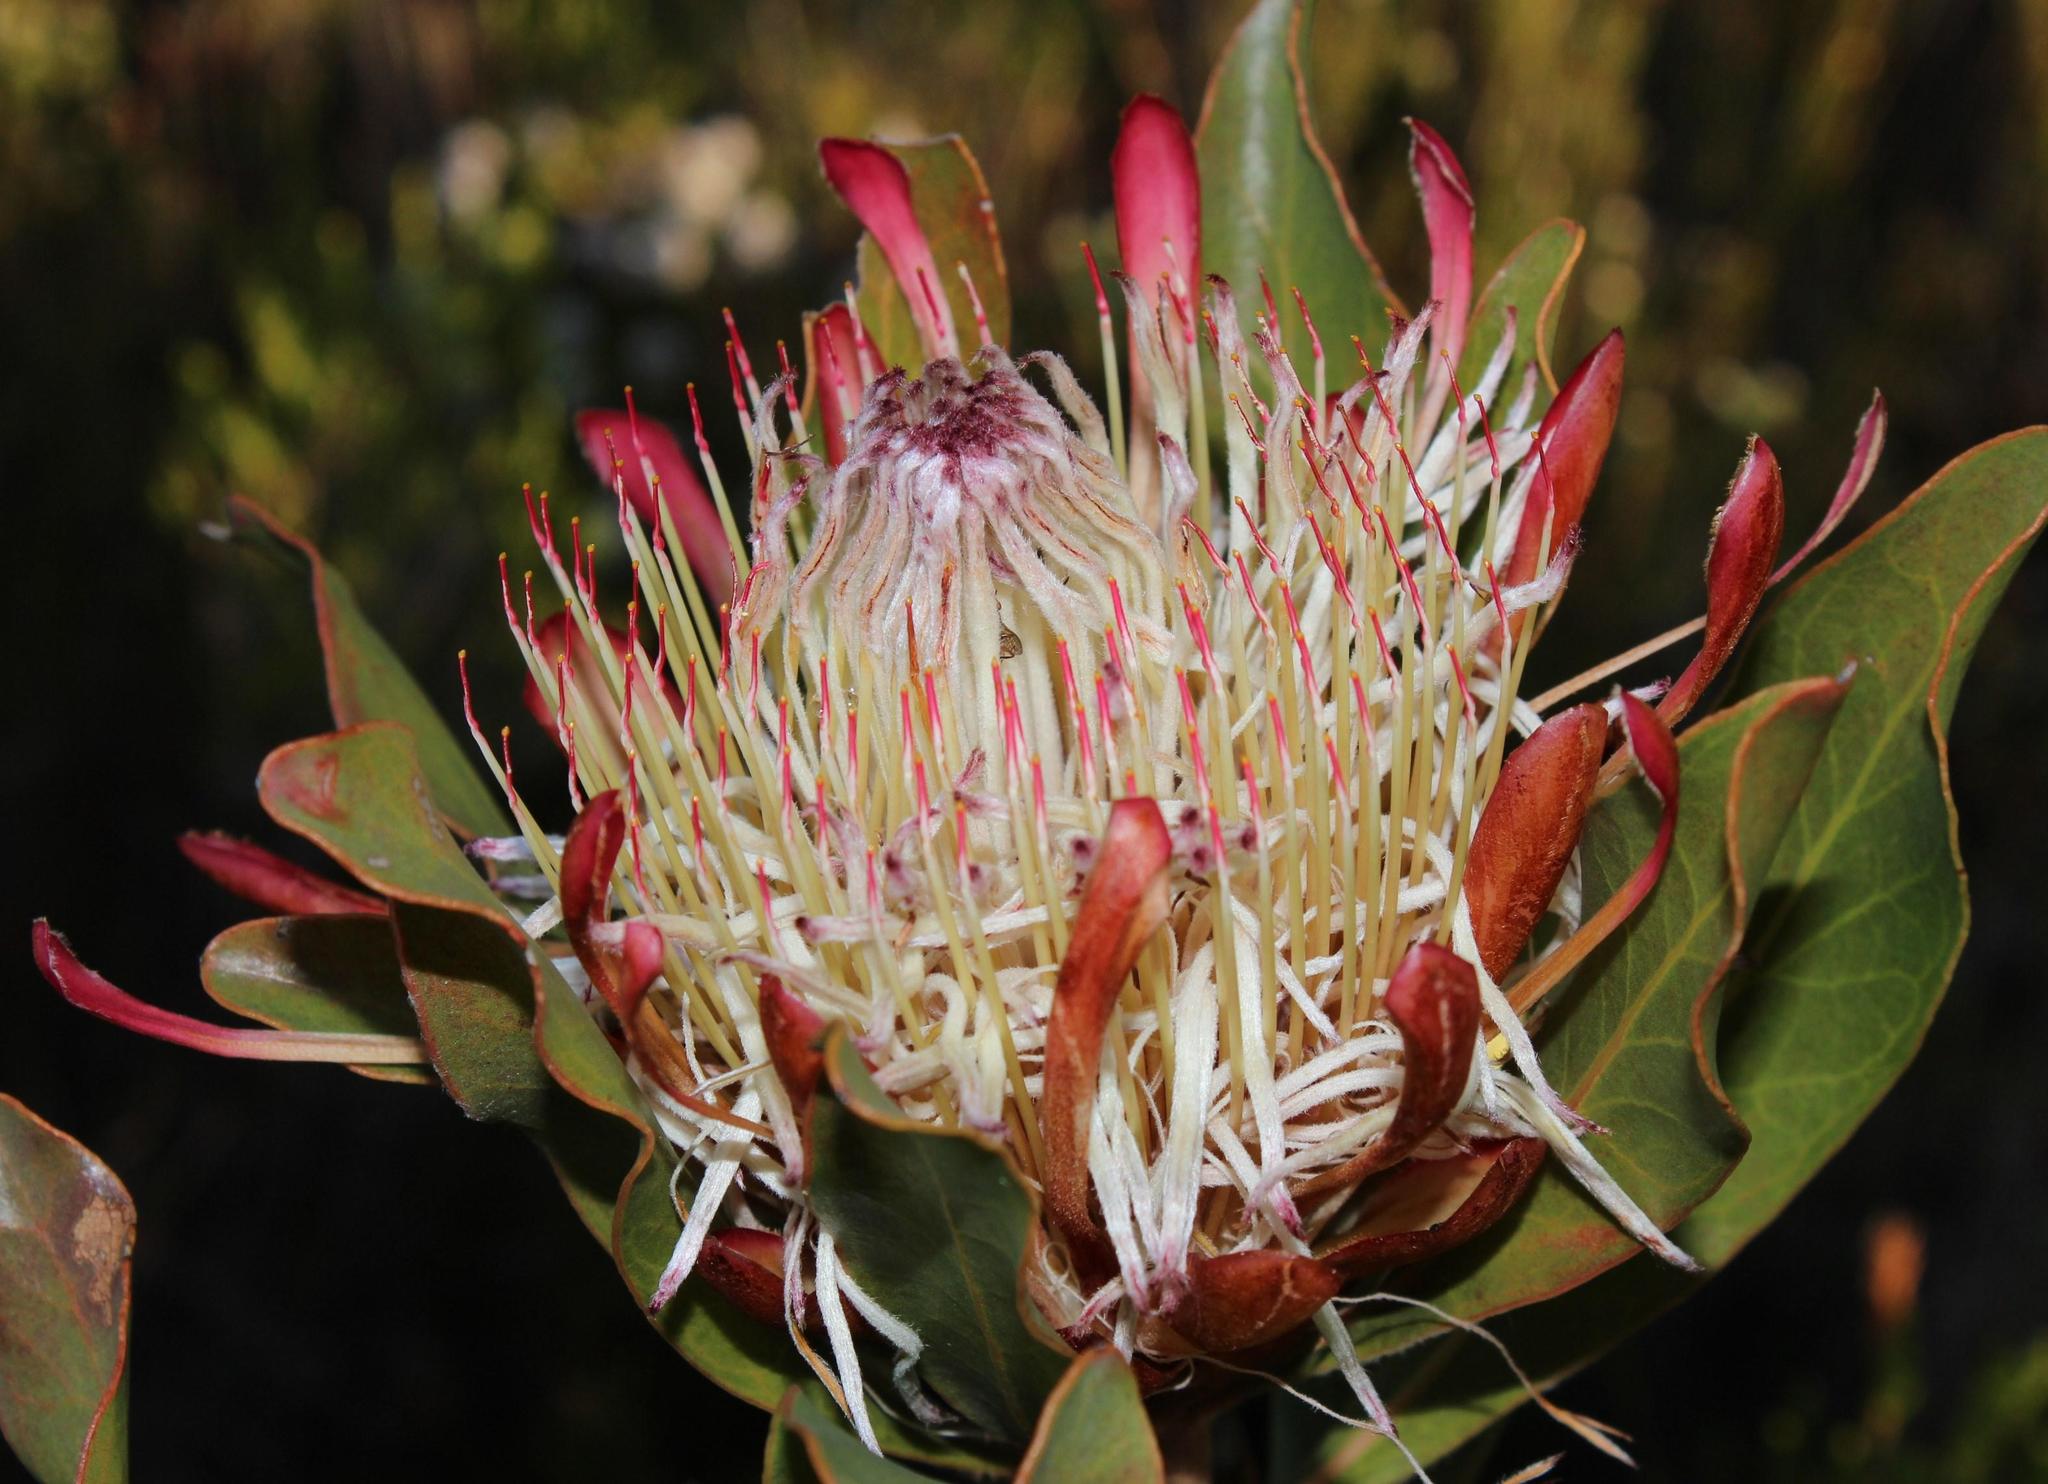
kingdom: Plantae
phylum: Tracheophyta
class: Magnoliopsida
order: Proteales
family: Proteaceae
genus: Protea
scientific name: Protea susannae
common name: Foetid-leaf sugarbush
